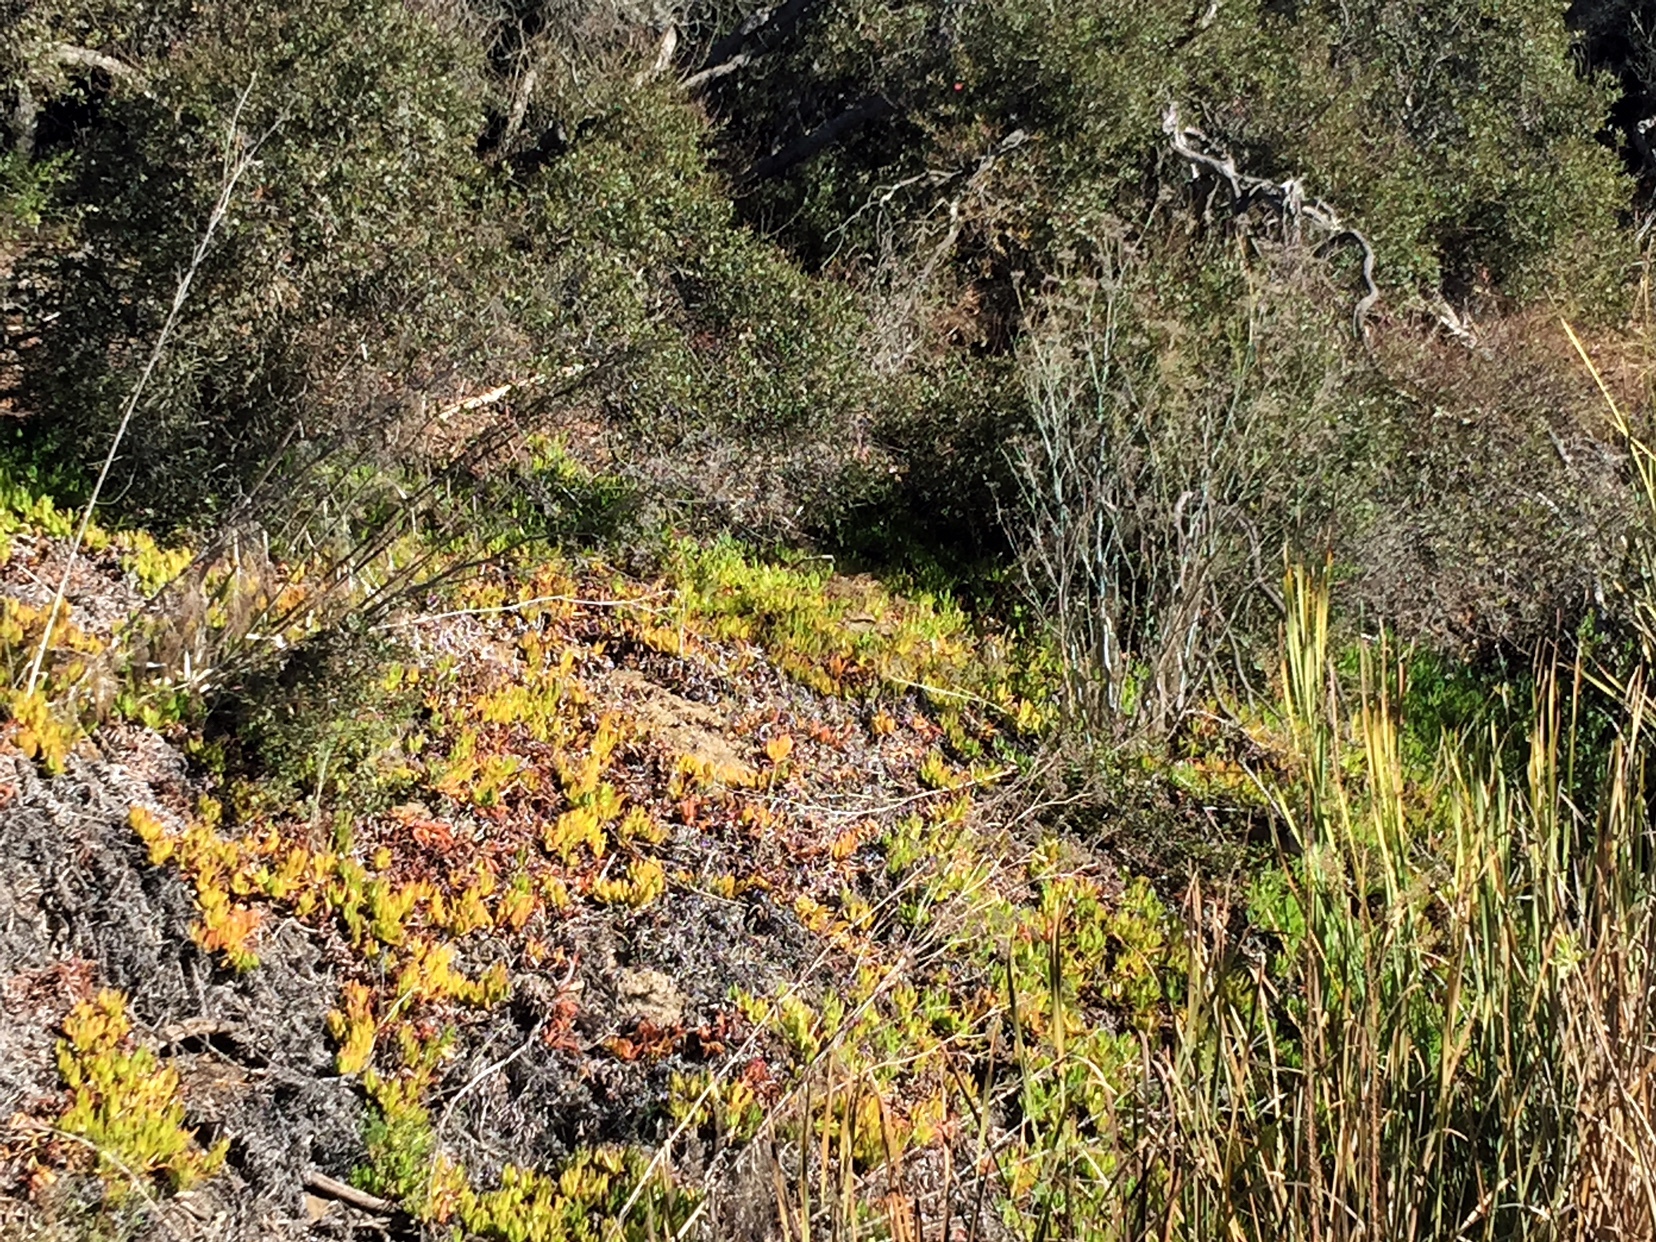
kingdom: Plantae
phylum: Tracheophyta
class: Magnoliopsida
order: Apiales
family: Apiaceae
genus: Foeniculum
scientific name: Foeniculum vulgare
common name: Fennel
